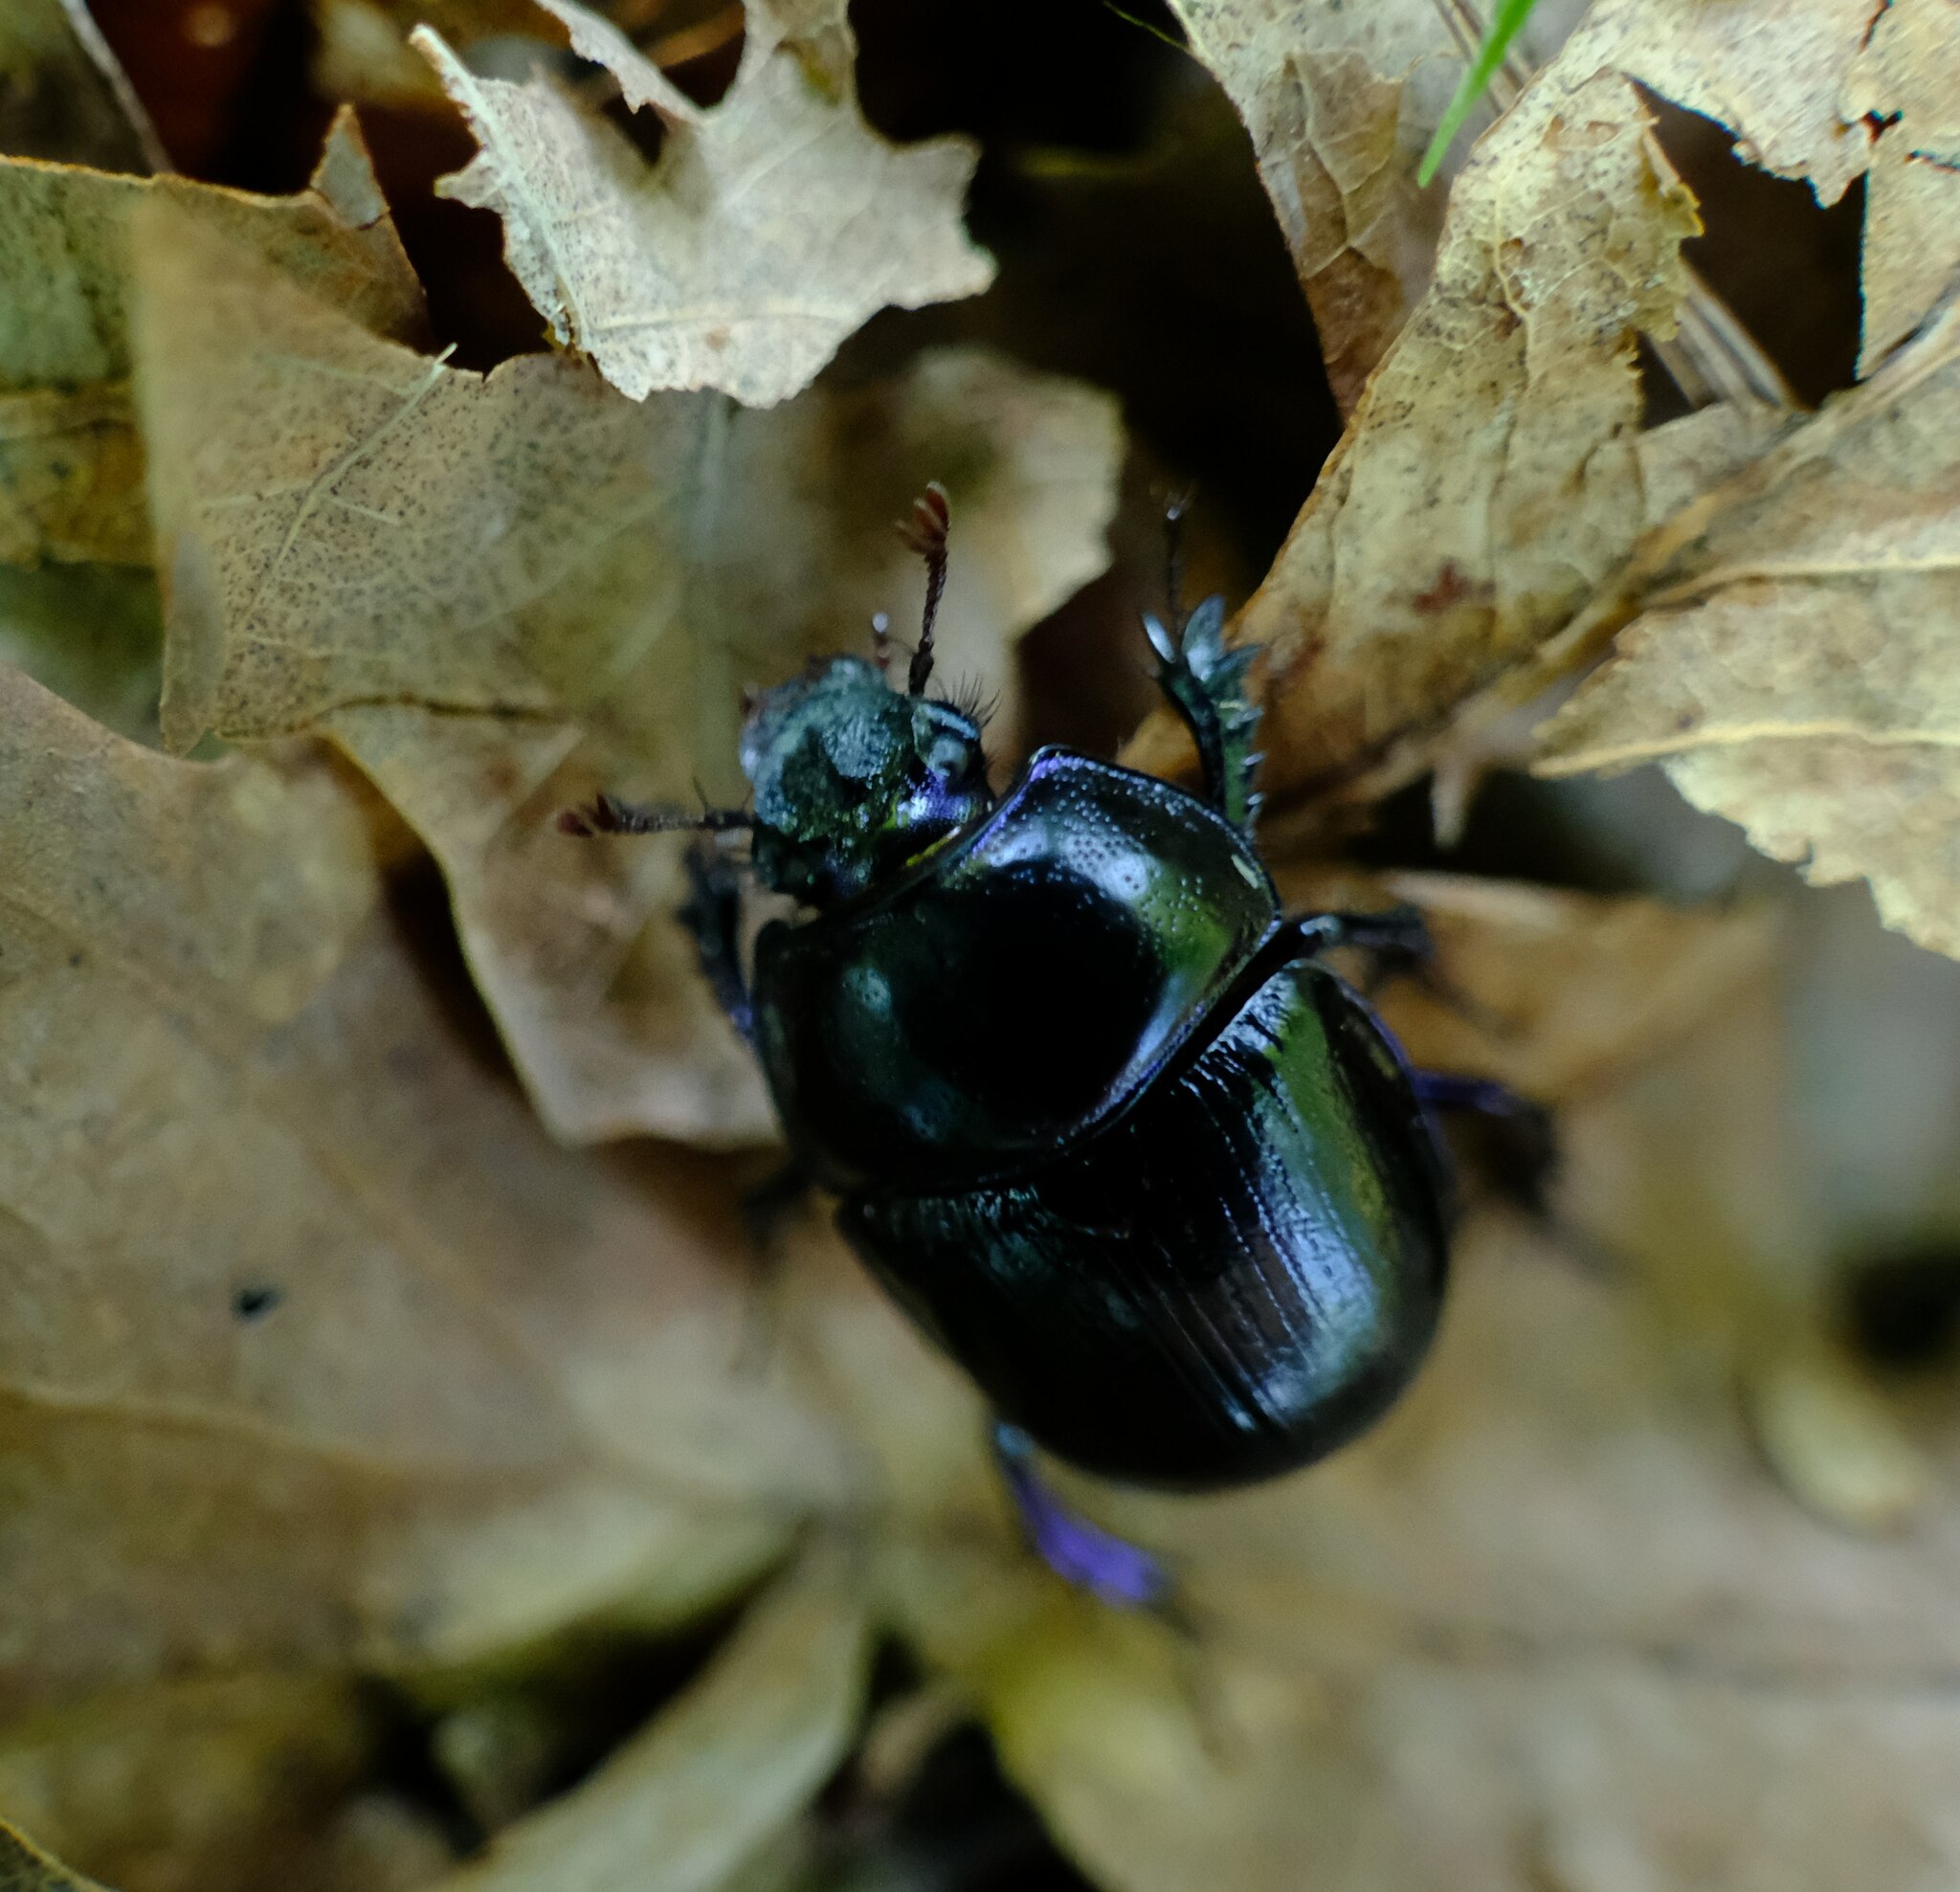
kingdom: Animalia
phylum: Arthropoda
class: Insecta
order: Coleoptera
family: Geotrupidae
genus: Anoplotrupes
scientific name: Anoplotrupes stercorosus
